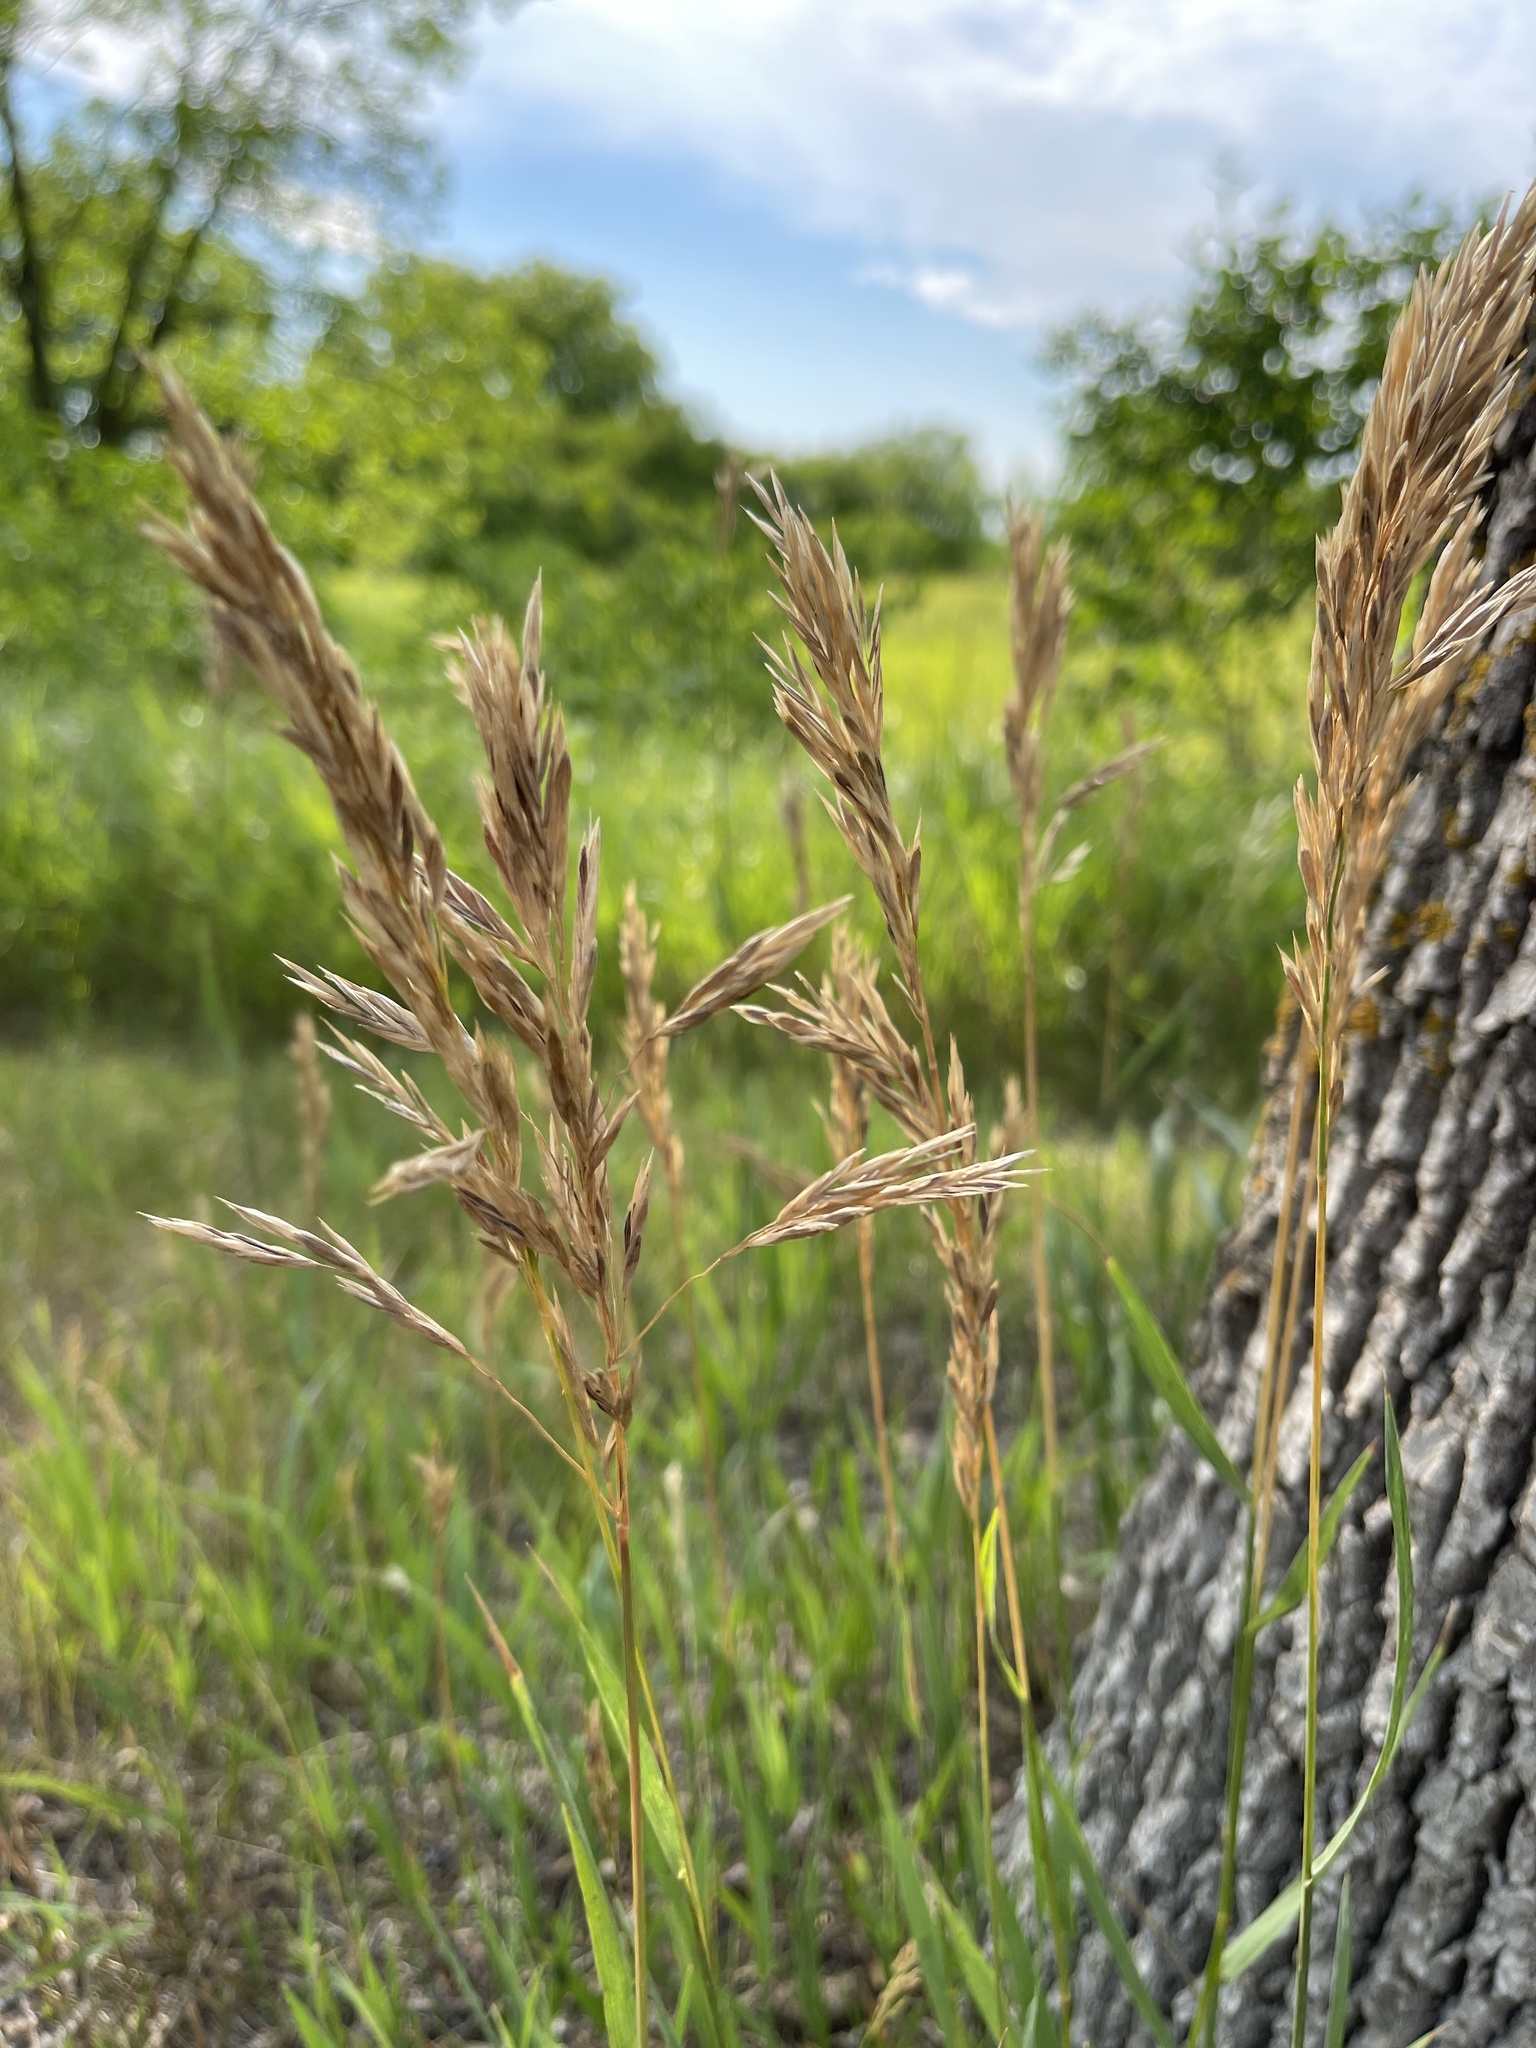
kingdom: Plantae
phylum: Tracheophyta
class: Liliopsida
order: Poales
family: Poaceae
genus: Bromus
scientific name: Bromus inermis
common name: Smooth brome
